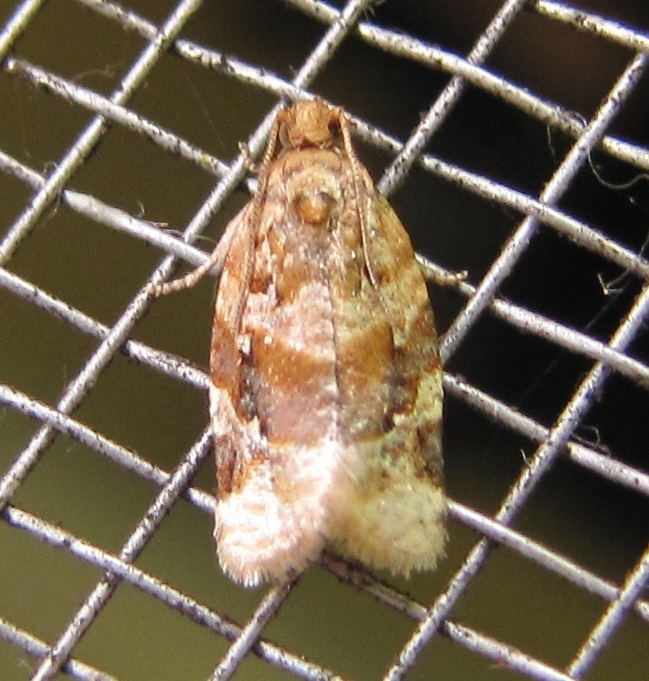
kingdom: Animalia
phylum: Arthropoda
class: Insecta
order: Lepidoptera
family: Tortricidae
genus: Argyrotaenia
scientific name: Argyrotaenia velutinana
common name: Red-banded leafroller moth
